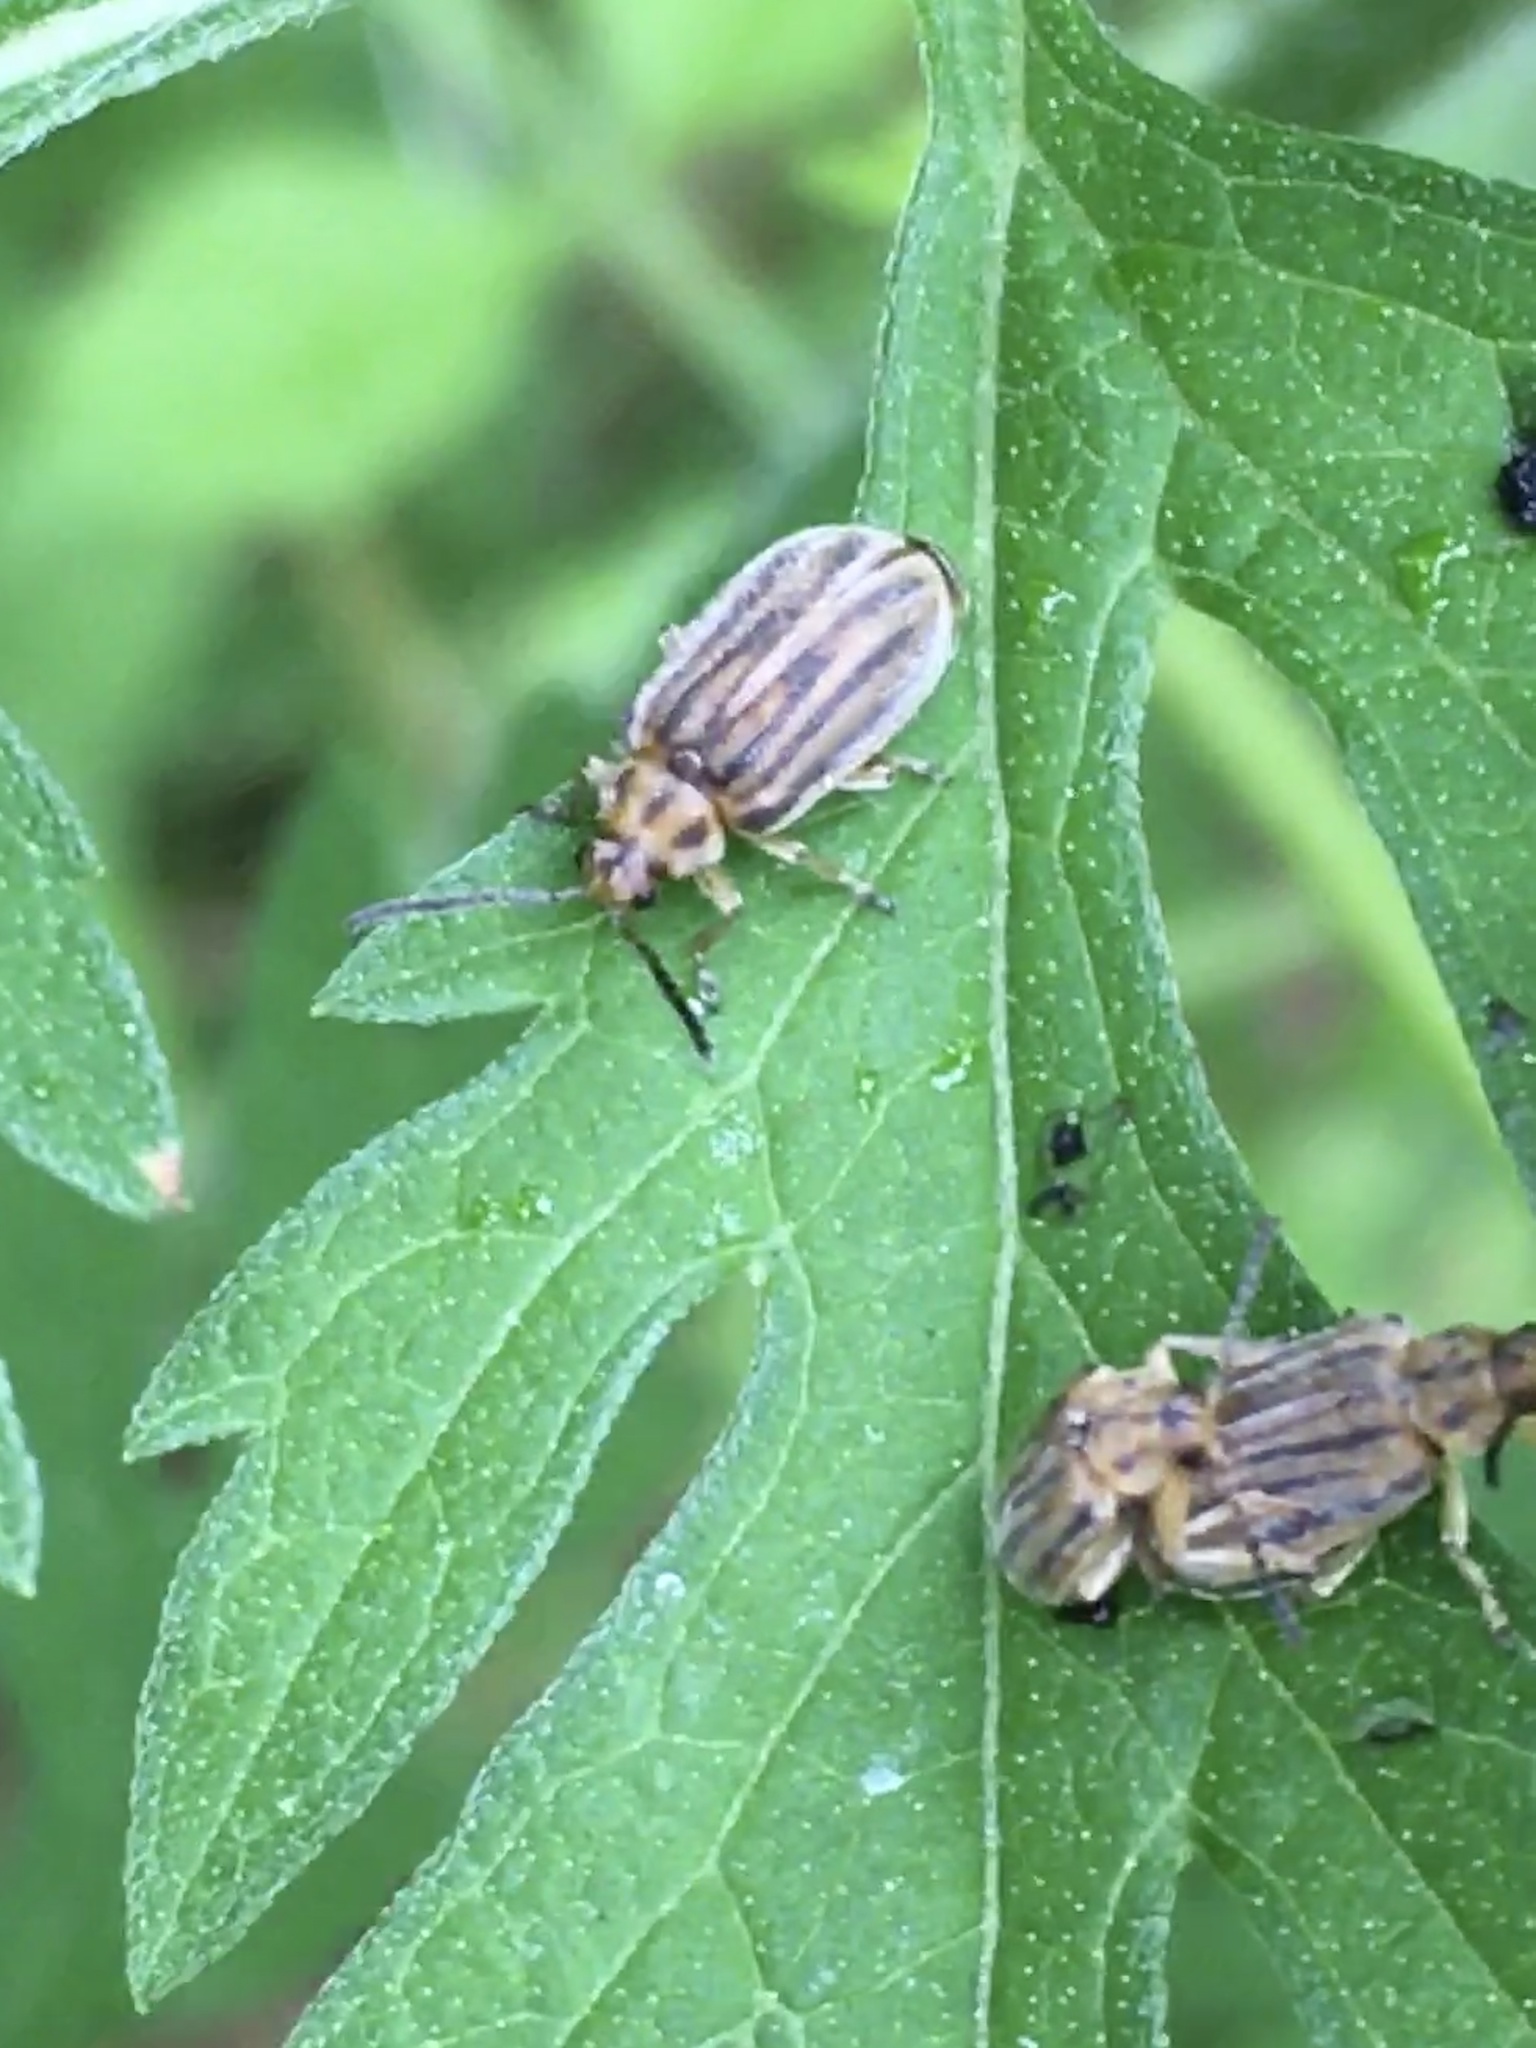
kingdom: Animalia
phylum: Arthropoda
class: Insecta
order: Coleoptera
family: Chrysomelidae
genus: Ophraella
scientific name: Ophraella communa
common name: Ragweed leaf beetle
